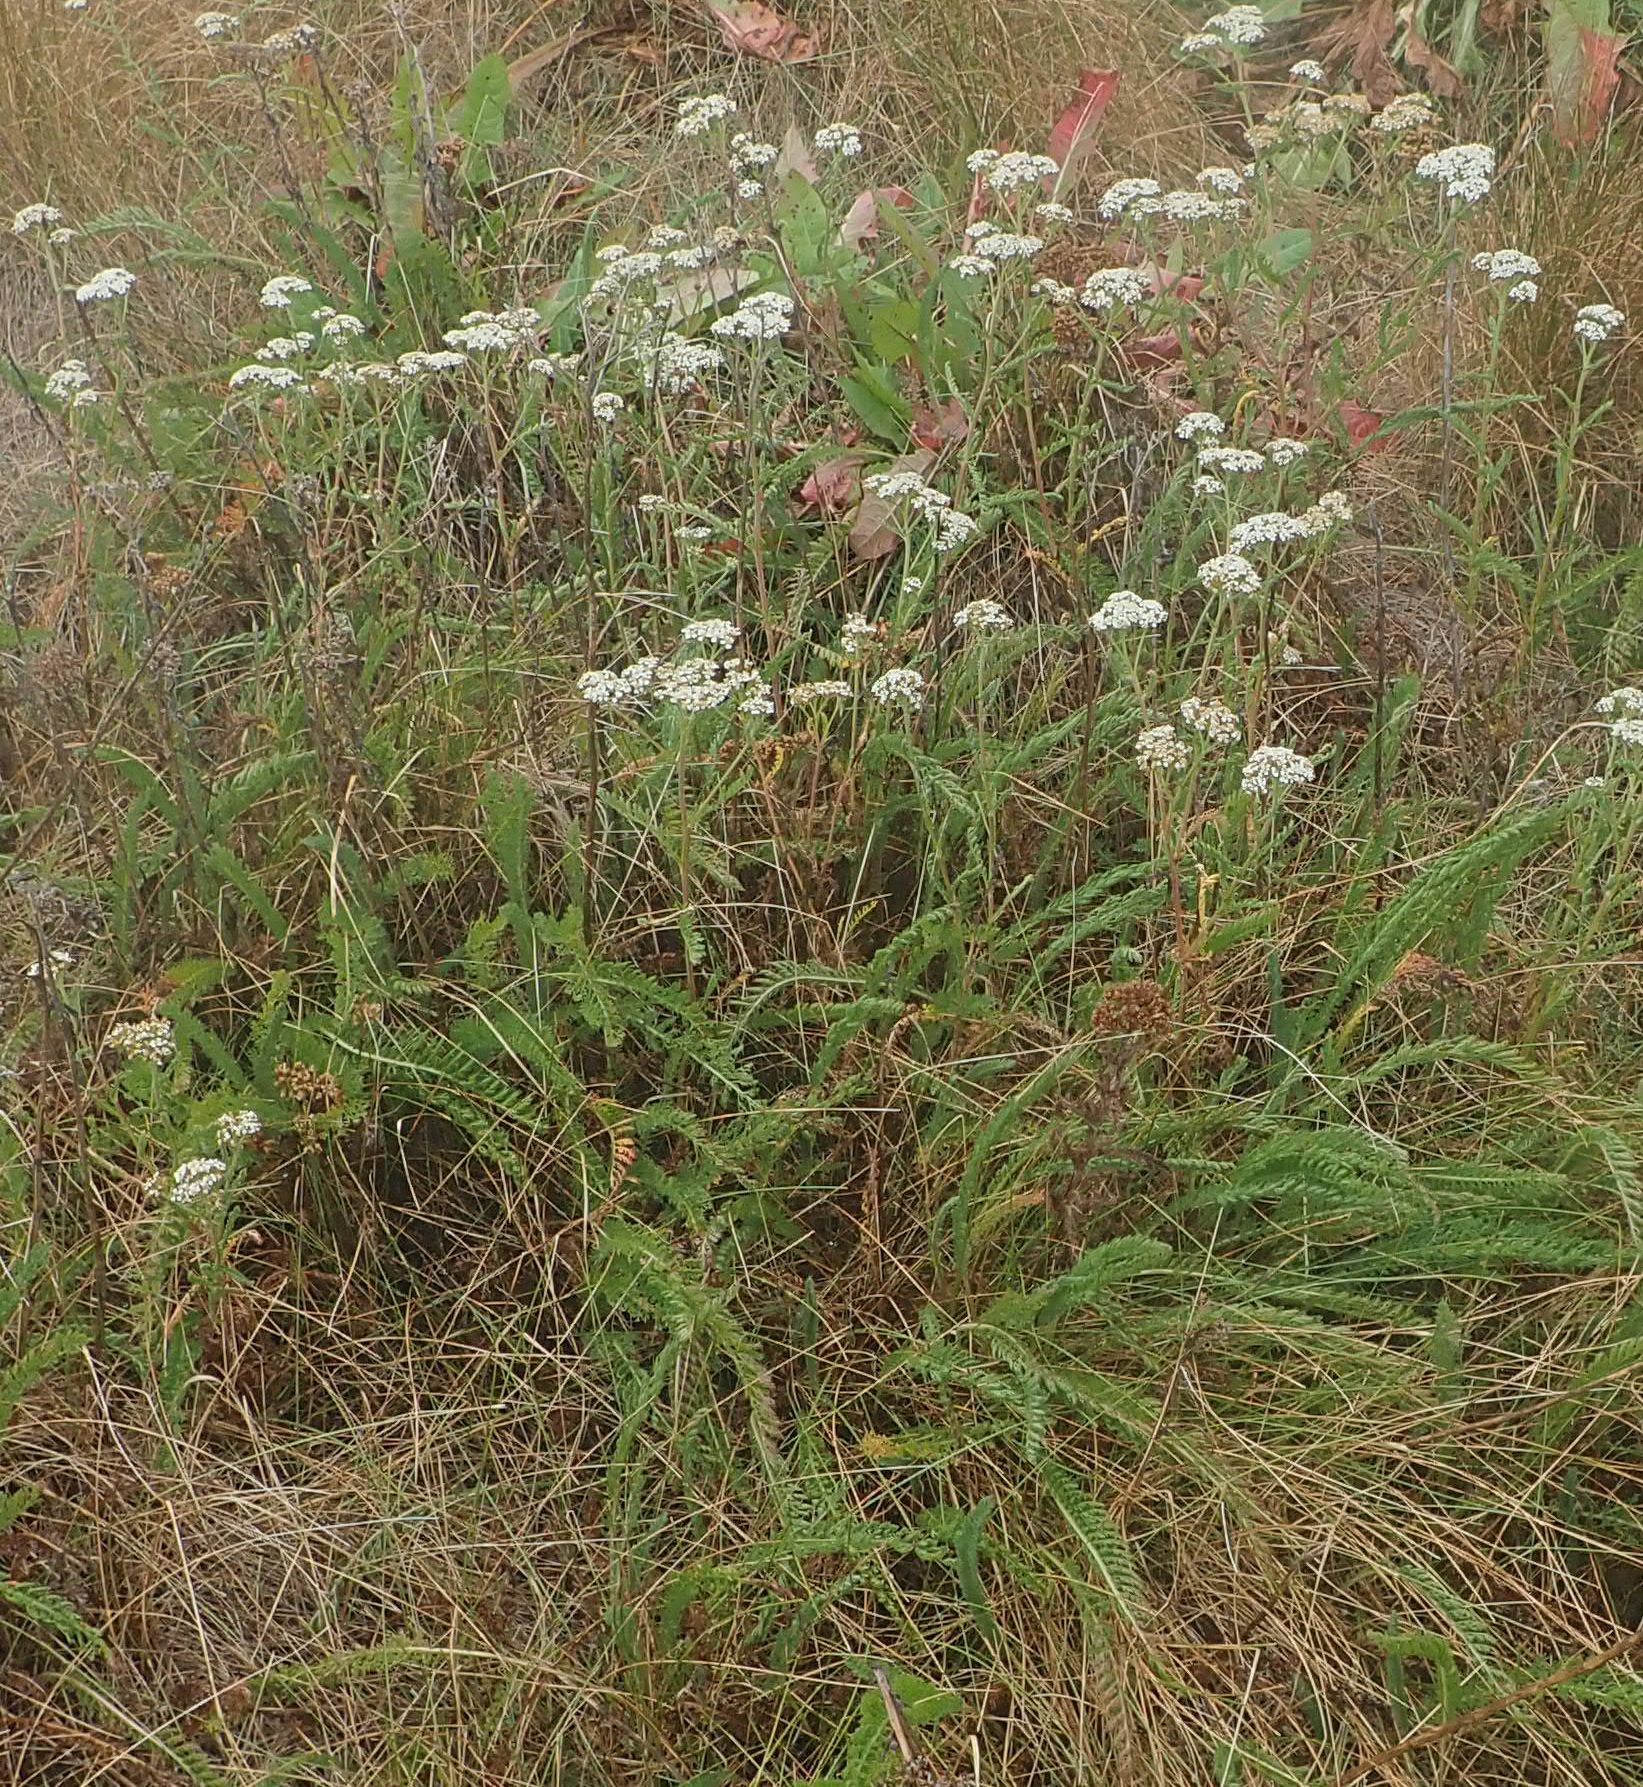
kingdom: Plantae
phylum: Tracheophyta
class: Magnoliopsida
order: Asterales
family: Asteraceae
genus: Achillea
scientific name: Achillea millefolium
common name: Yarrow
